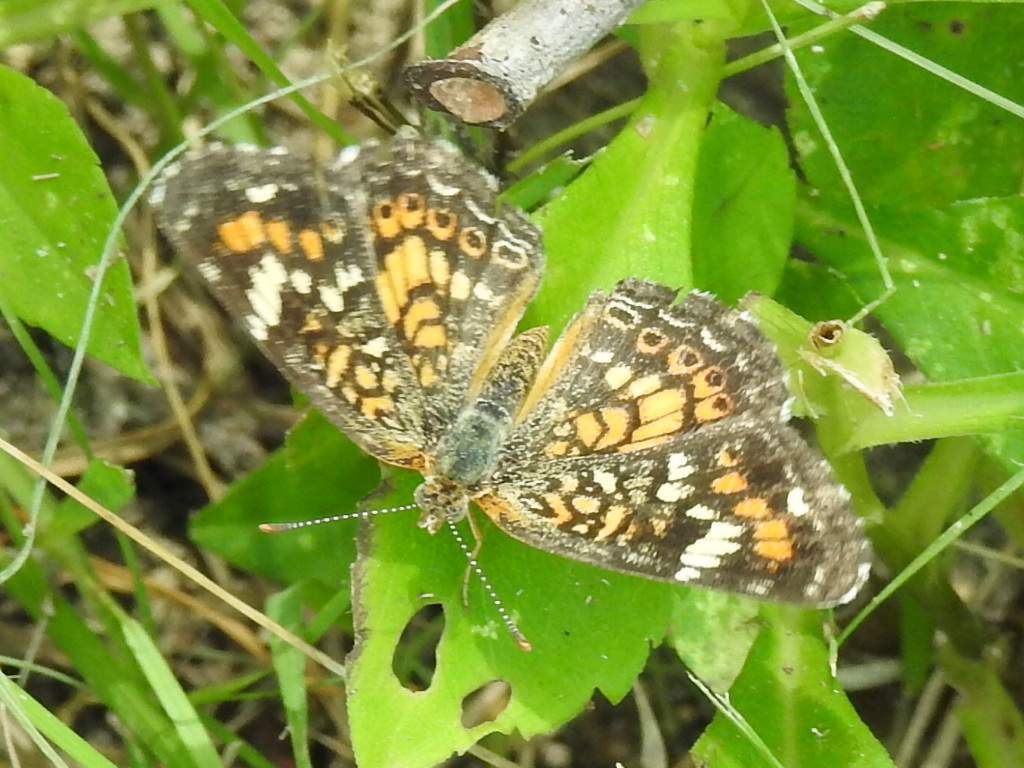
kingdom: Animalia
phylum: Arthropoda
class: Insecta
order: Lepidoptera
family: Nymphalidae
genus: Phyciodes
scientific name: Phyciodes phaon
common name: Phaon crescent
